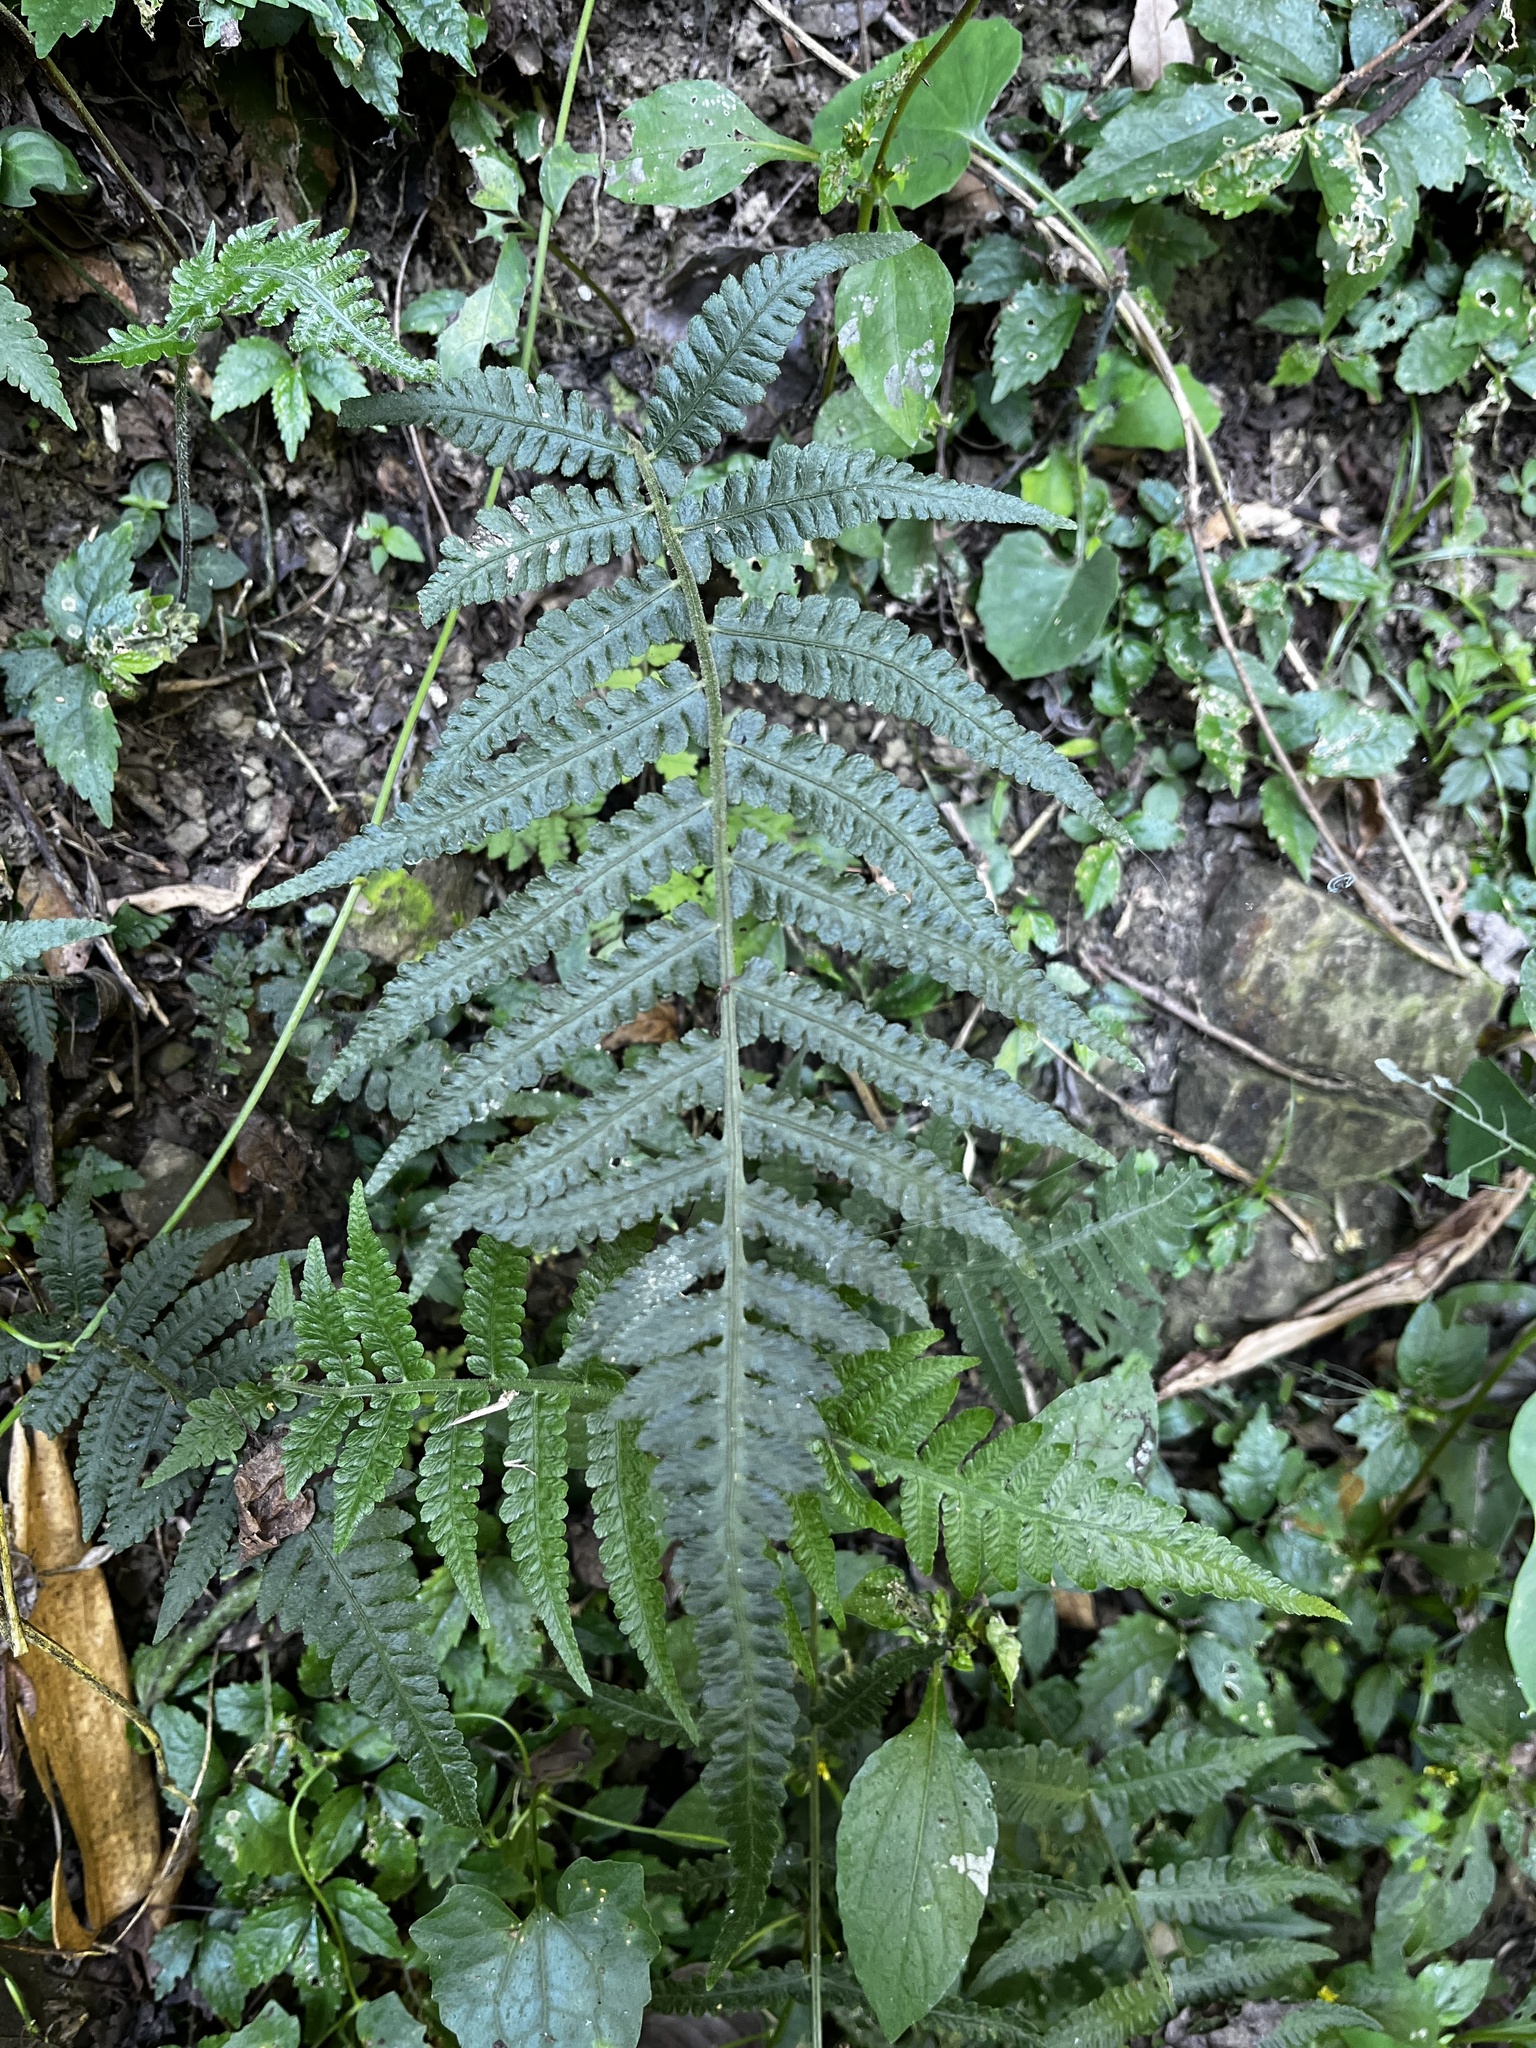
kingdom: Plantae
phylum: Tracheophyta
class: Polypodiopsida
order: Polypodiales
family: Athyriaceae
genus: Deparia
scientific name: Deparia petersenii
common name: Japanese false spleenwort
